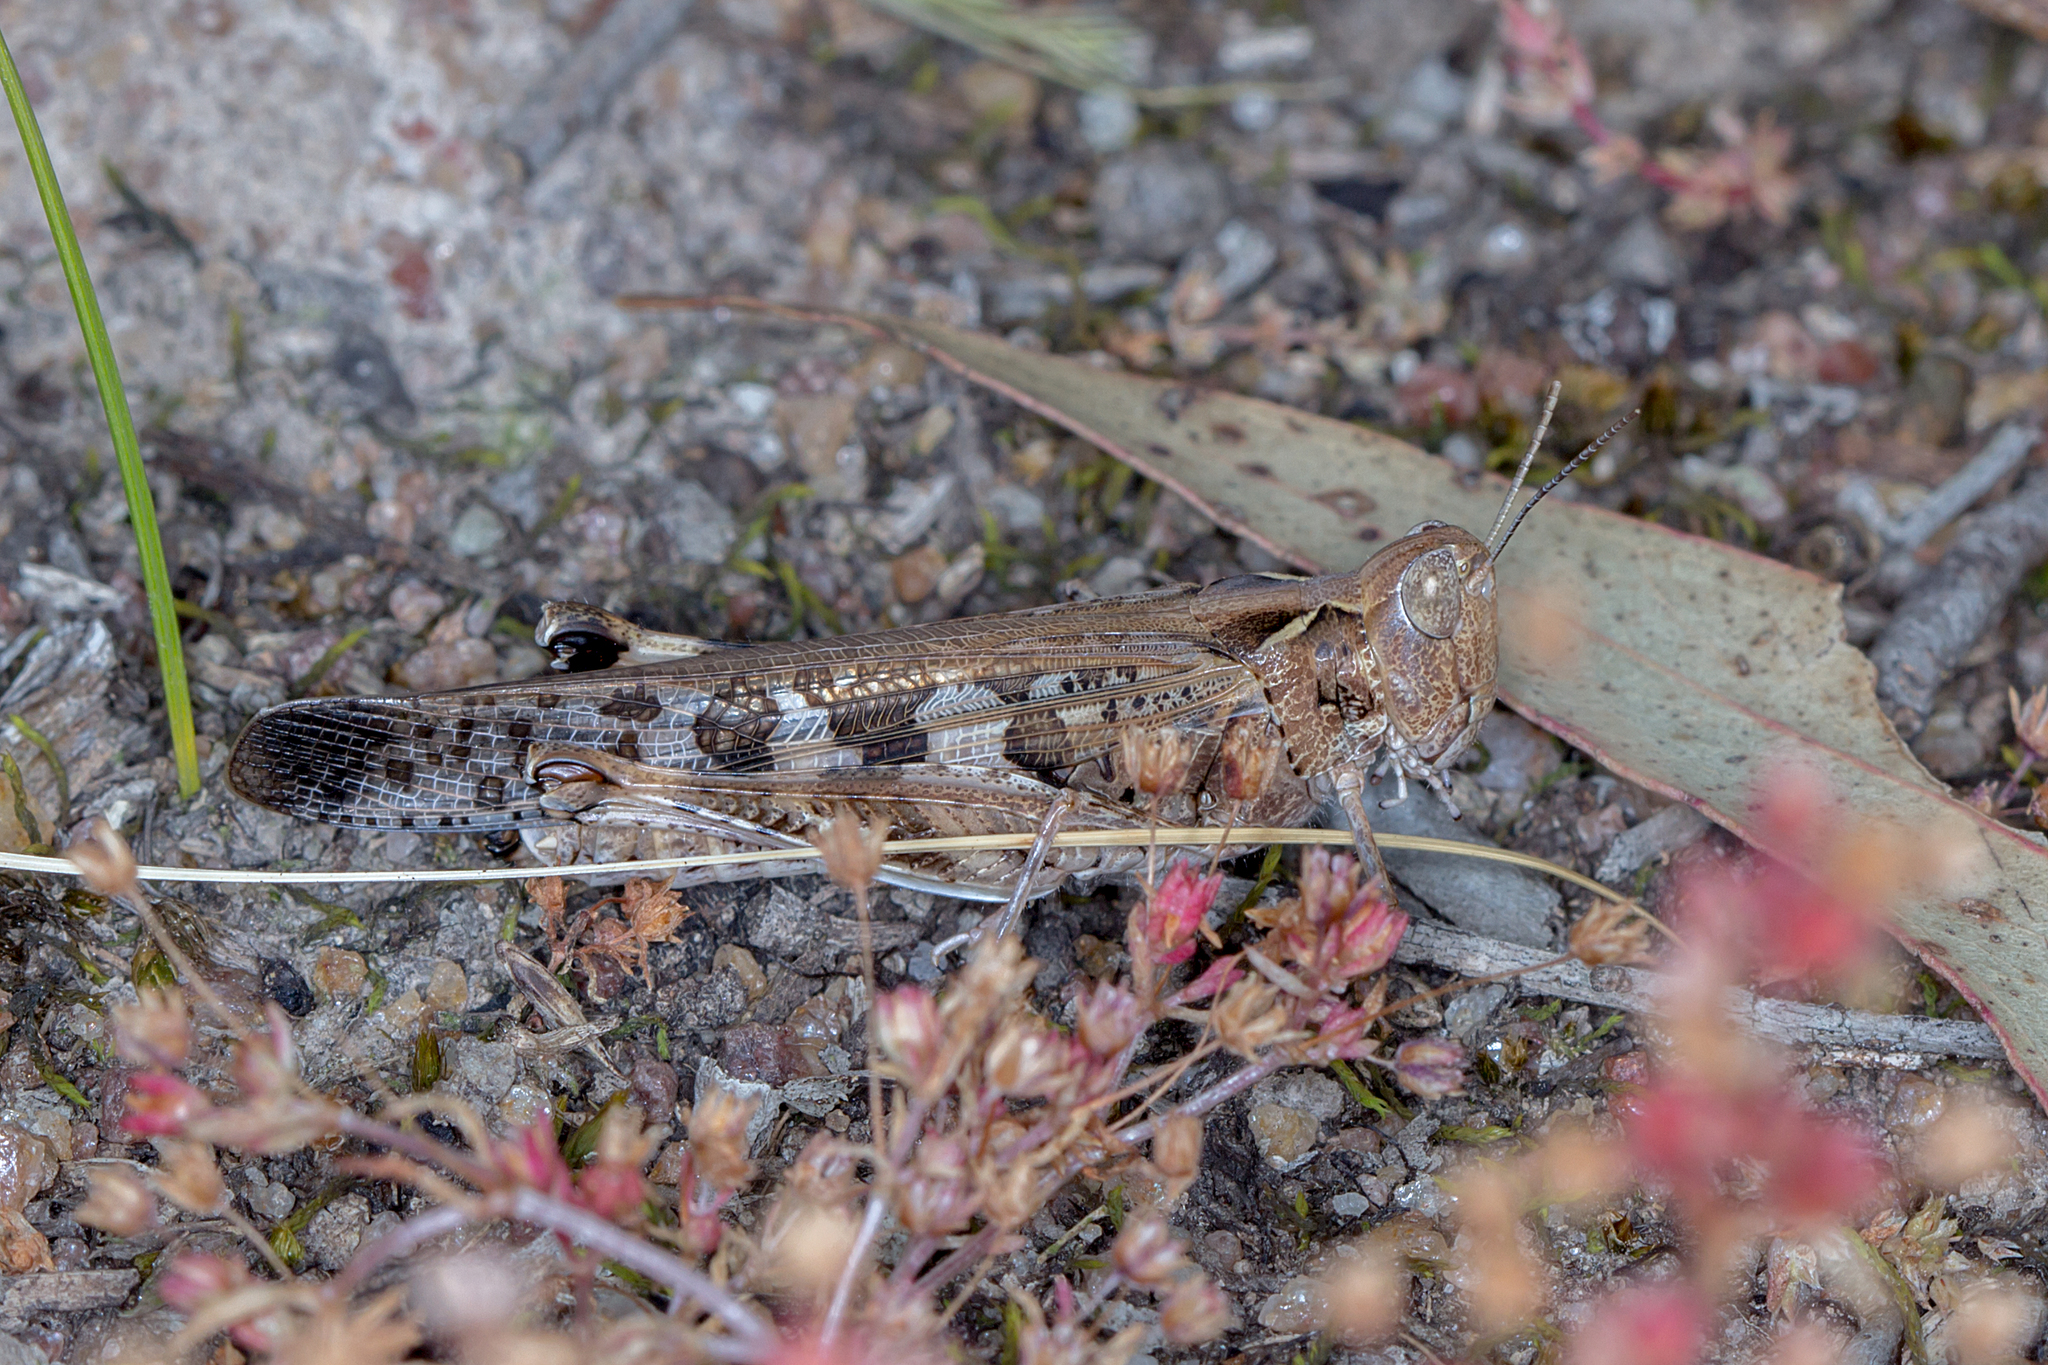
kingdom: Animalia
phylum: Arthropoda
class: Insecta
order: Orthoptera
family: Acrididae
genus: Chortoicetes
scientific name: Chortoicetes terminifera
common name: Australian plague locust
